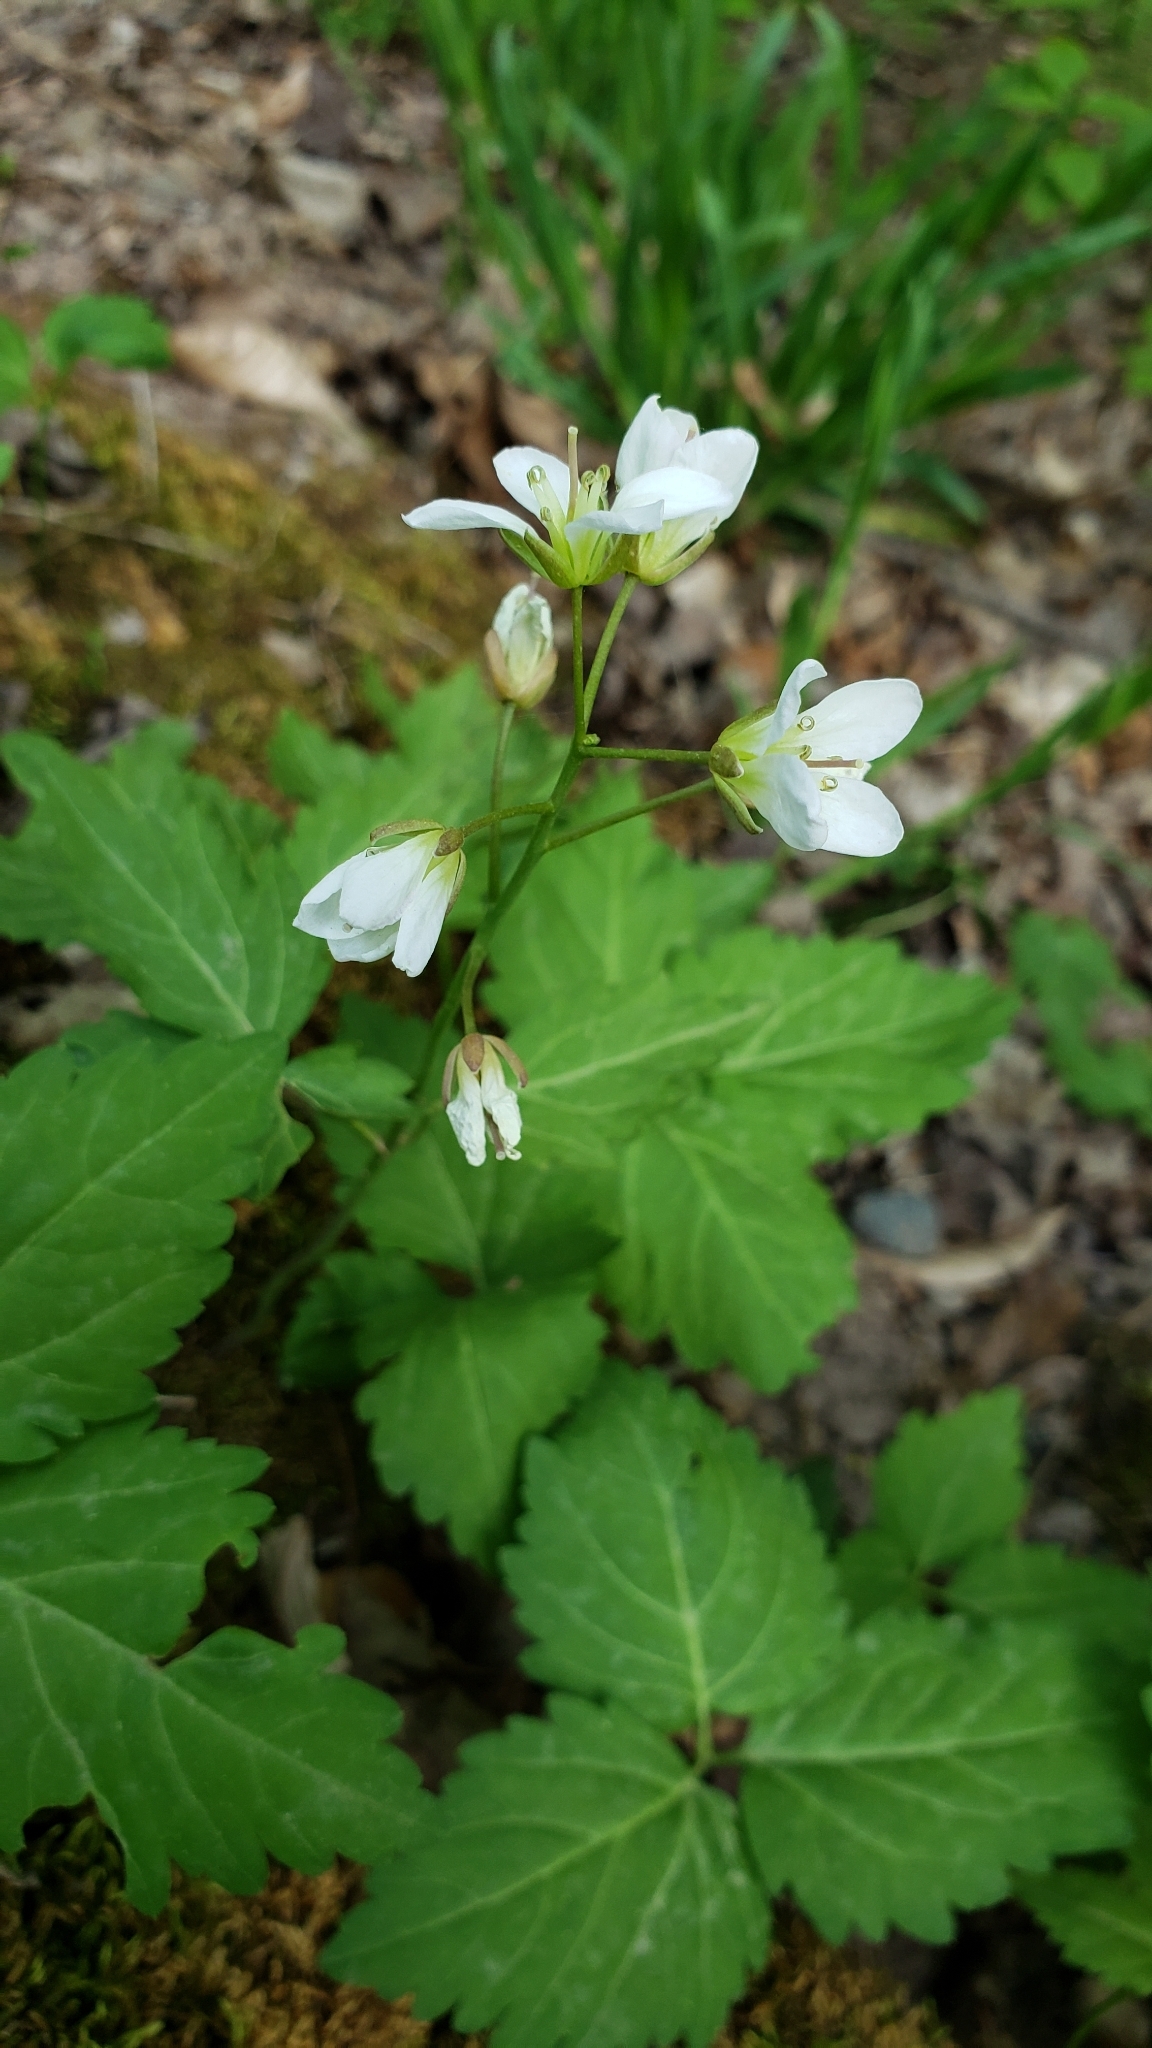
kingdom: Plantae
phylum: Tracheophyta
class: Magnoliopsida
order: Brassicales
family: Brassicaceae
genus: Cardamine
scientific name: Cardamine diphylla
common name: Broad-leaved toothwort
